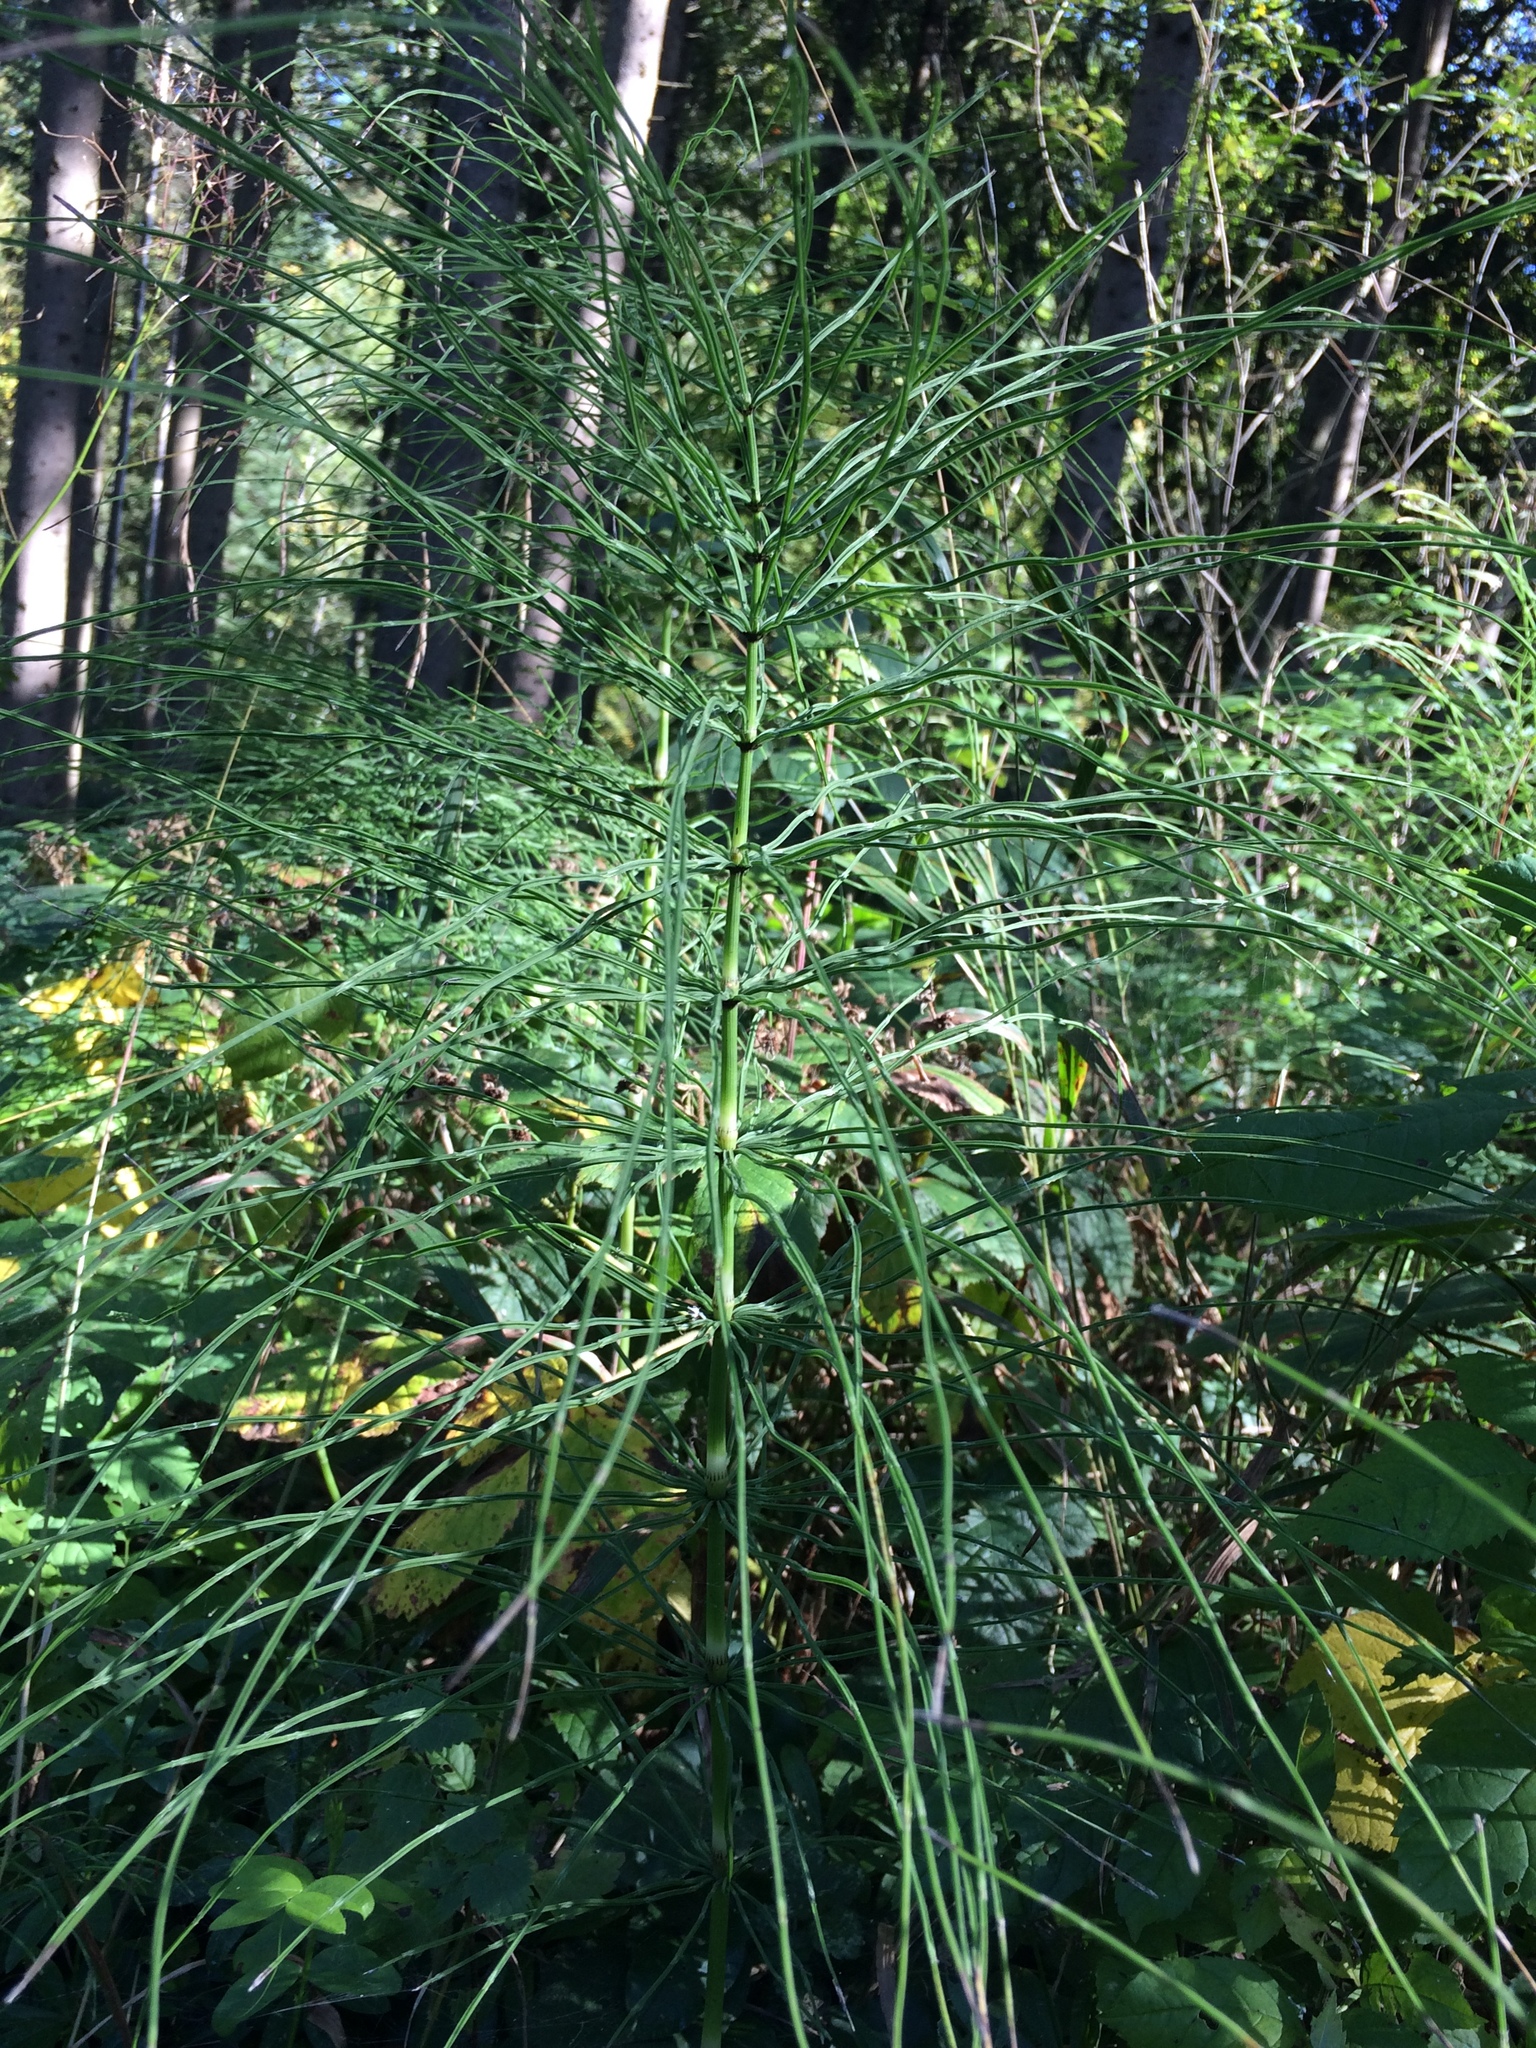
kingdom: Plantae
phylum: Tracheophyta
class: Polypodiopsida
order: Equisetales
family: Equisetaceae
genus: Equisetum
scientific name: Equisetum arvense
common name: Field horsetail
